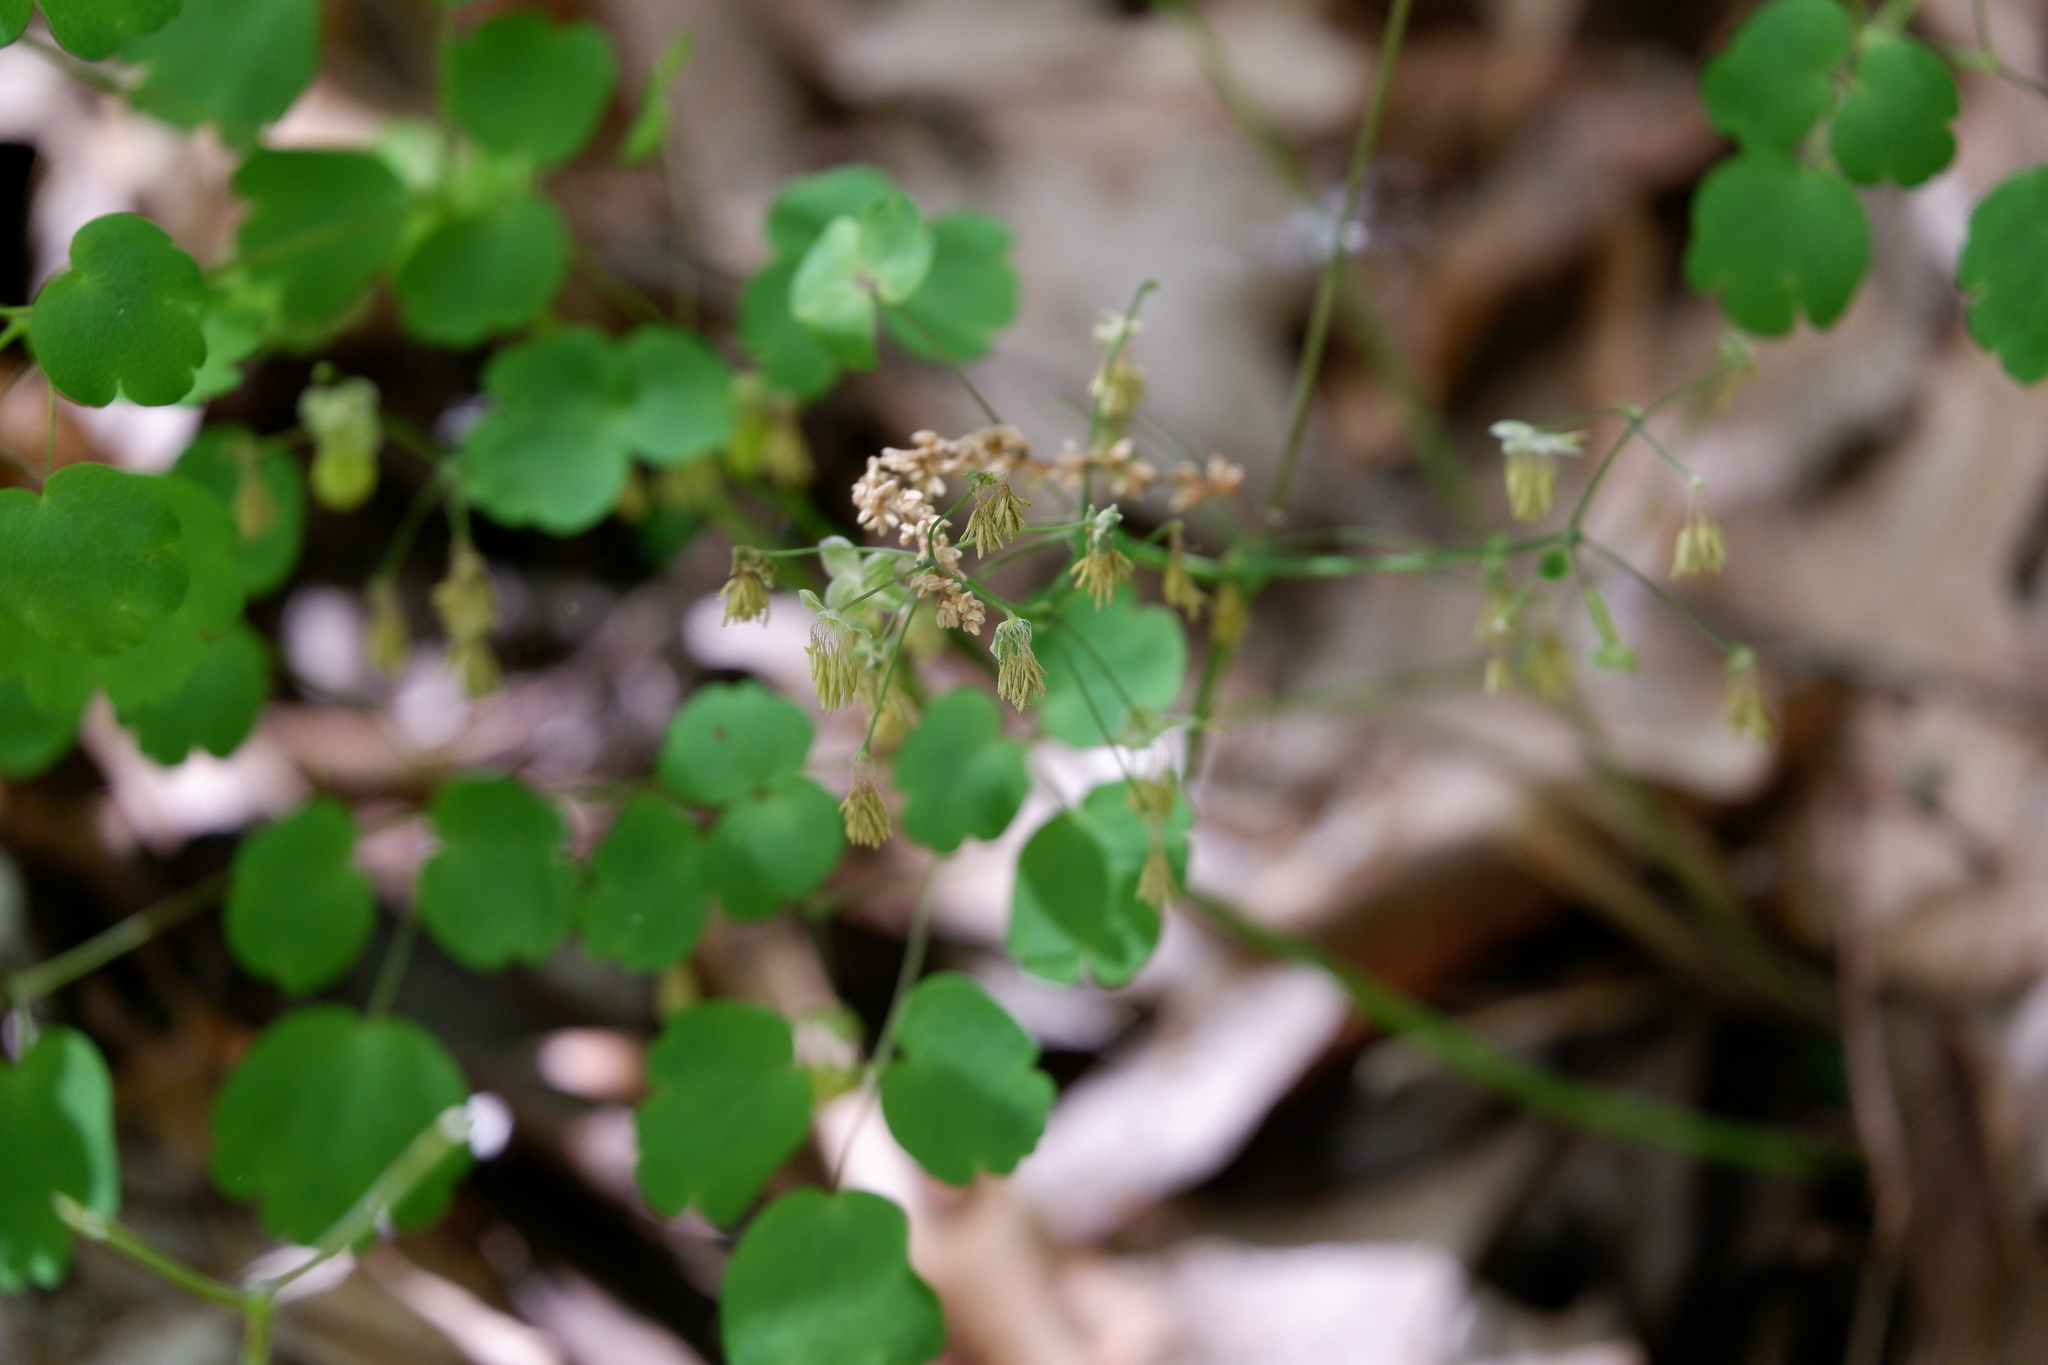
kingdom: Plantae
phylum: Tracheophyta
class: Magnoliopsida
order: Ranunculales
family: Ranunculaceae
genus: Thalictrum
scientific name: Thalictrum dioicum
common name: Early meadow-rue
